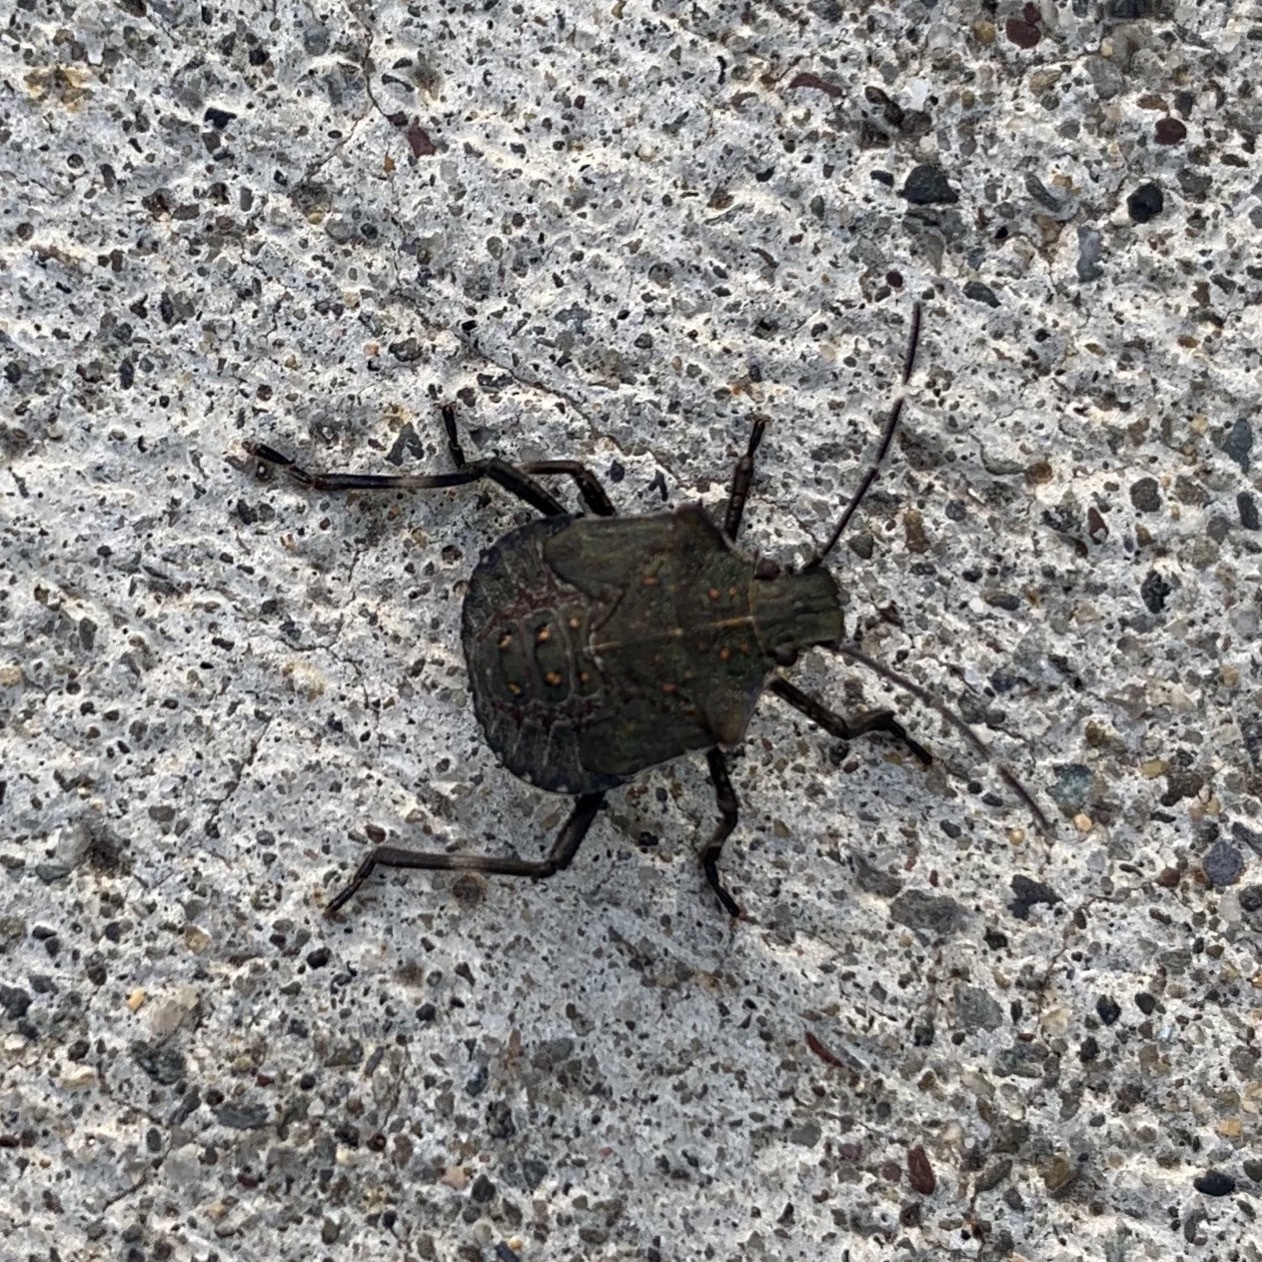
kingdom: Animalia
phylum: Arthropoda
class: Insecta
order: Hemiptera
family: Pentatomidae
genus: Halyomorpha
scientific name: Halyomorpha halys
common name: Brown marmorated stink bug
